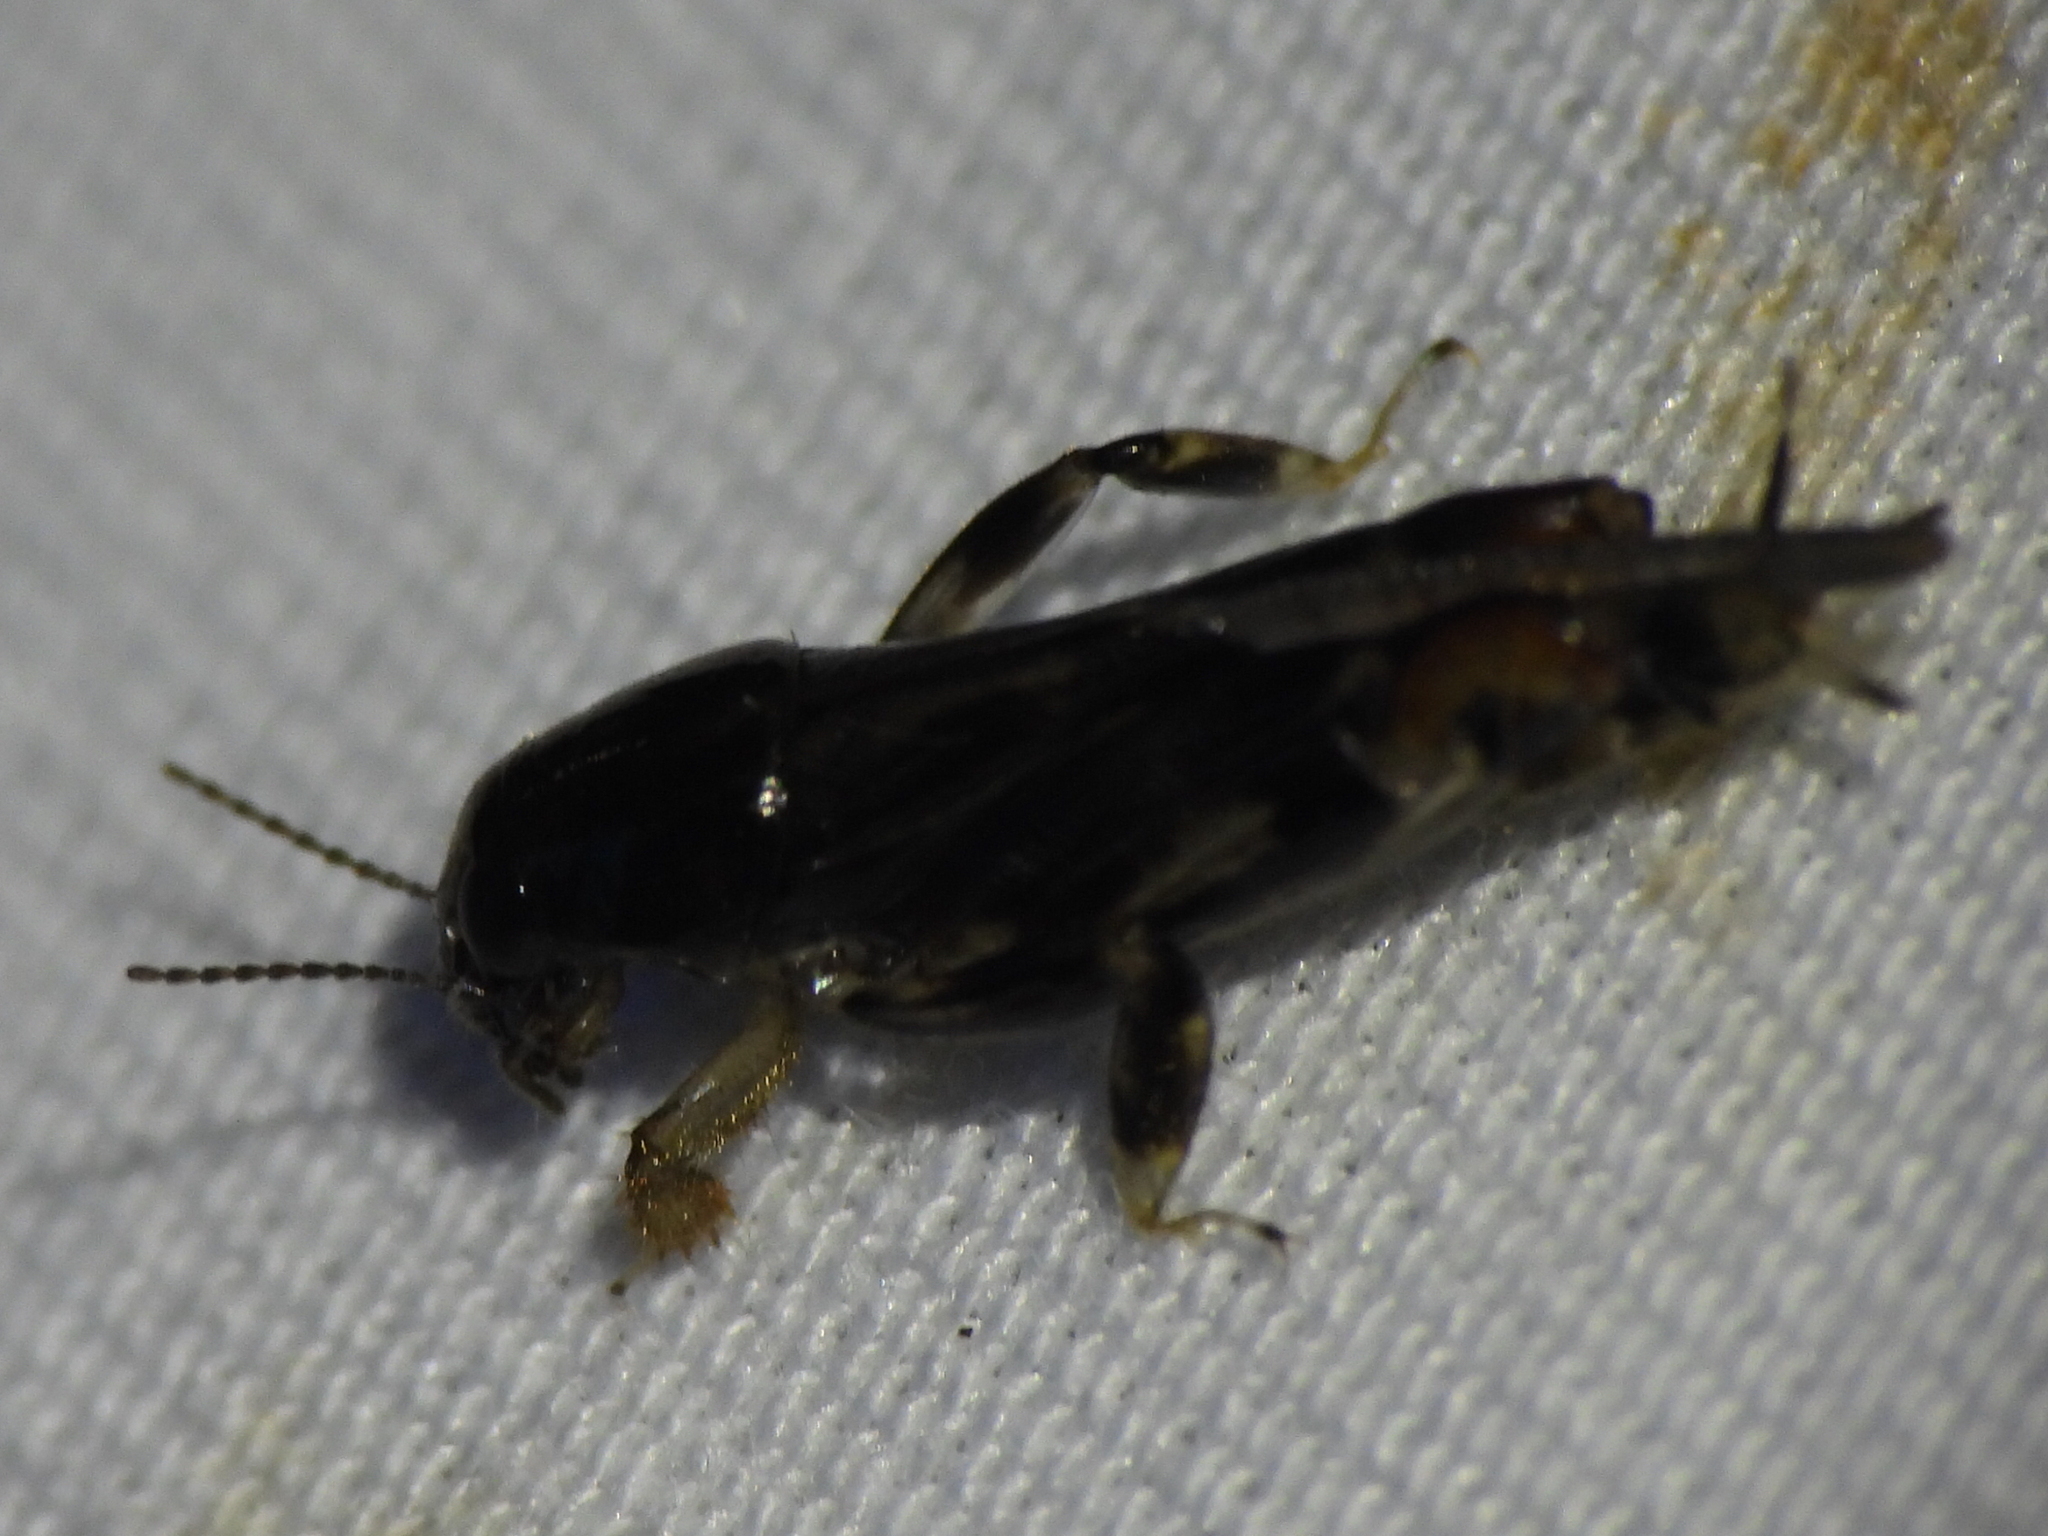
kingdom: Animalia
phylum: Arthropoda
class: Insecta
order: Orthoptera
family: Tridactylidae
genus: Neotridactylus
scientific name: Neotridactylus apicialis
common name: Larger pygmy locust
